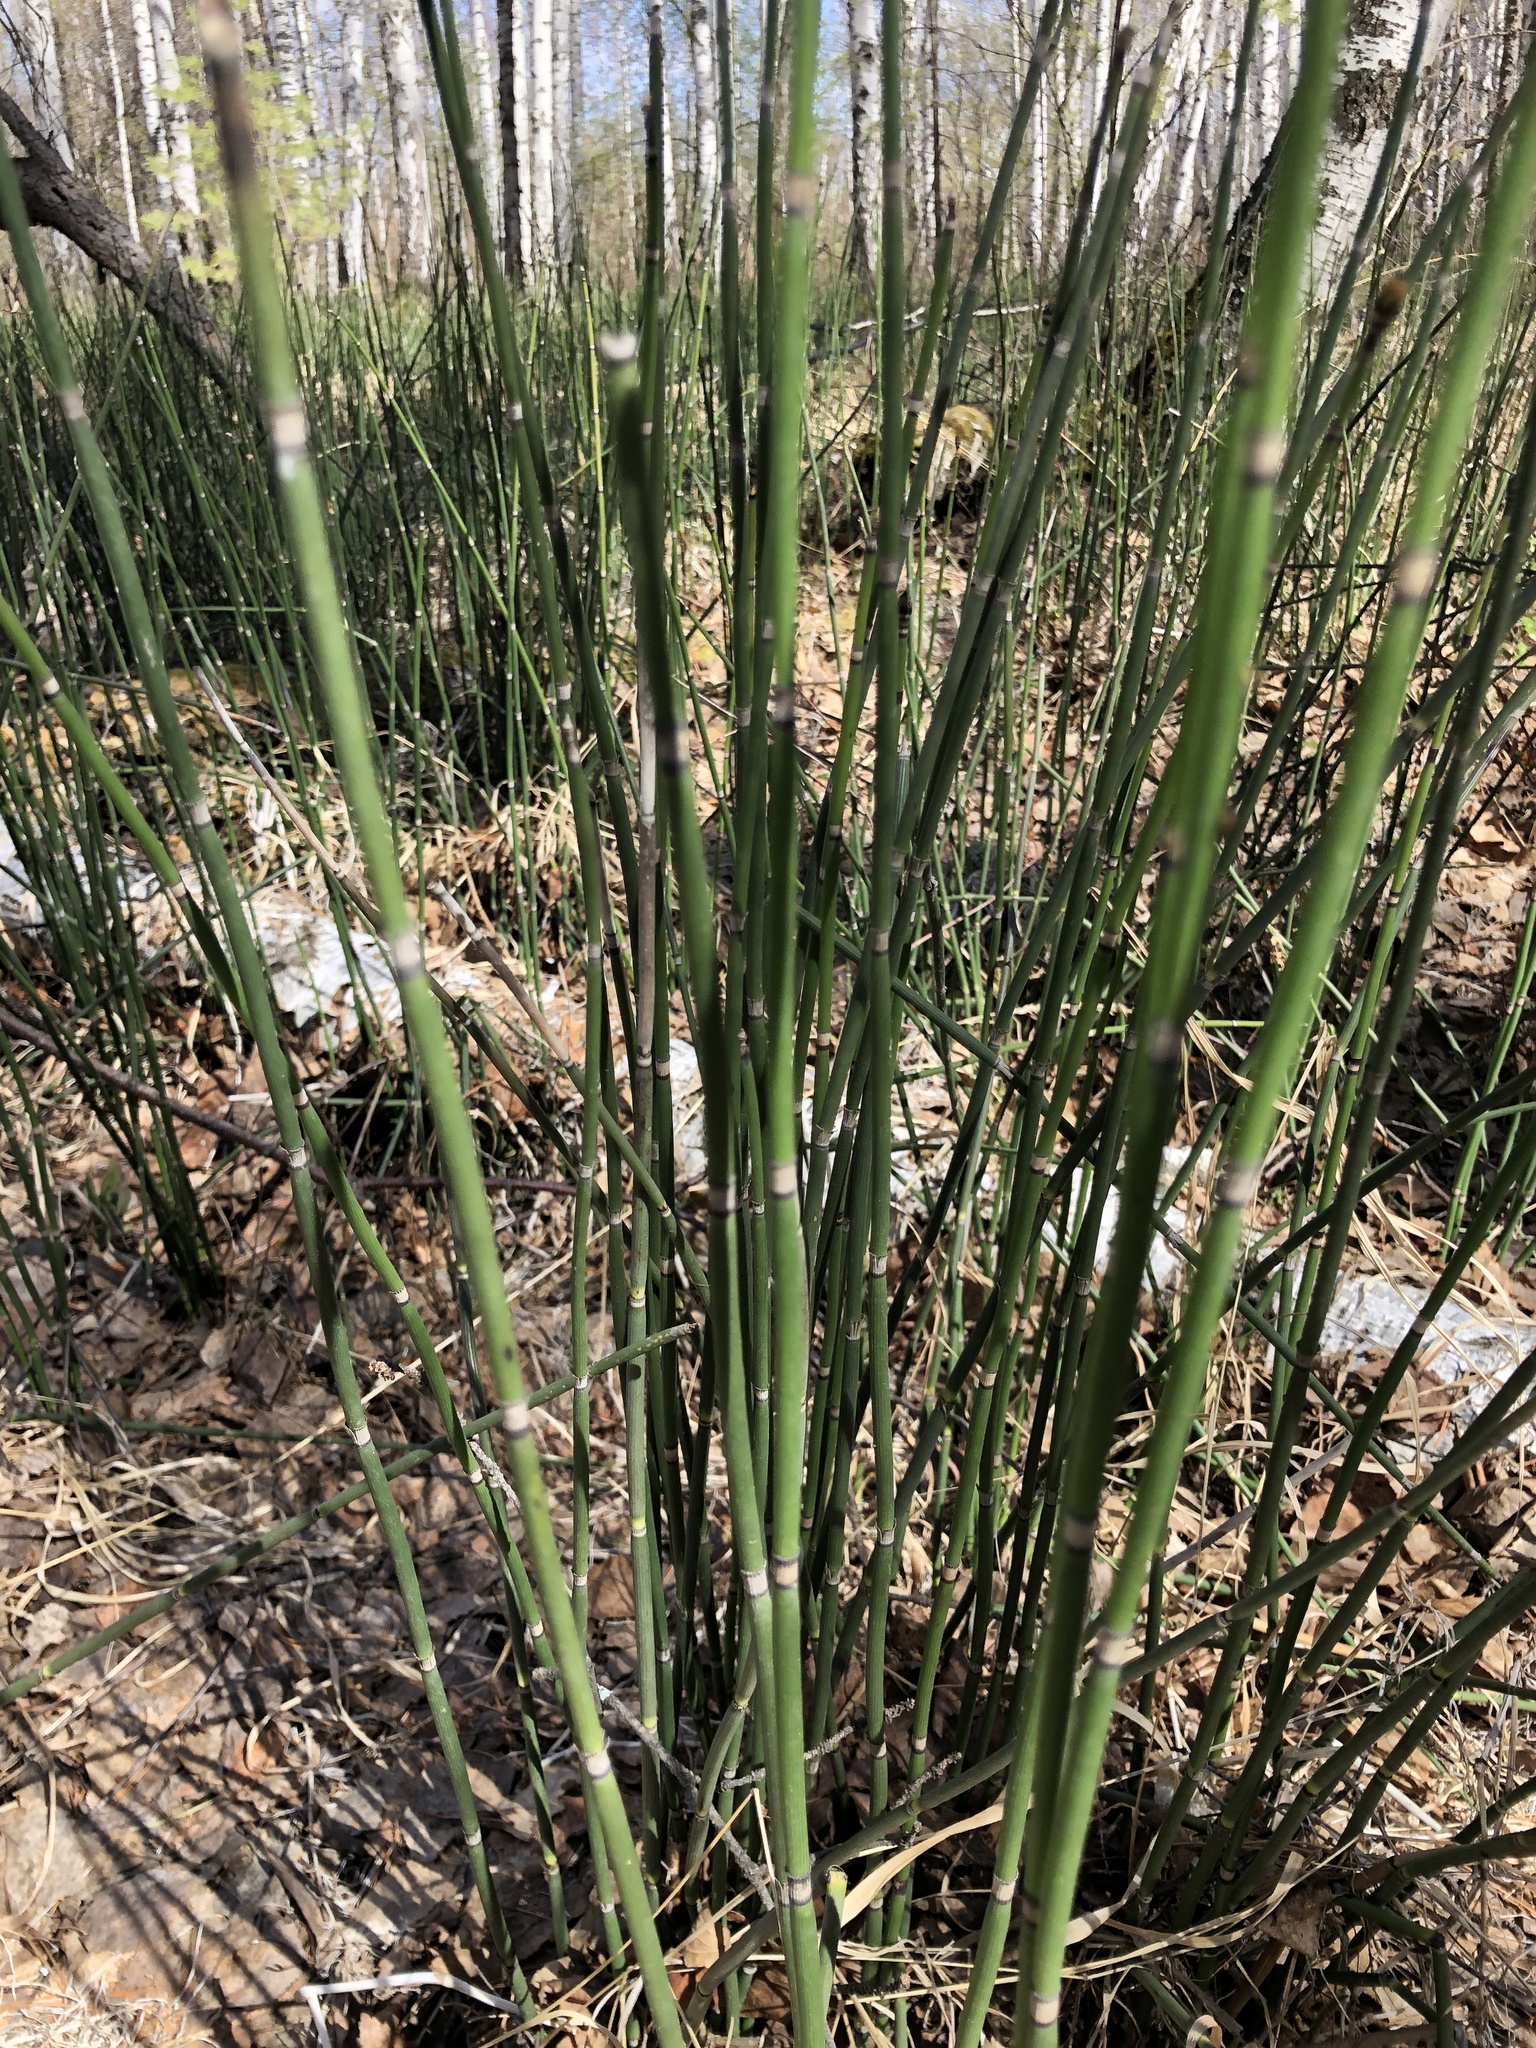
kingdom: Plantae
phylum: Tracheophyta
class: Polypodiopsida
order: Equisetales
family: Equisetaceae
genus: Equisetum
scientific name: Equisetum hyemale
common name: Rough horsetail
